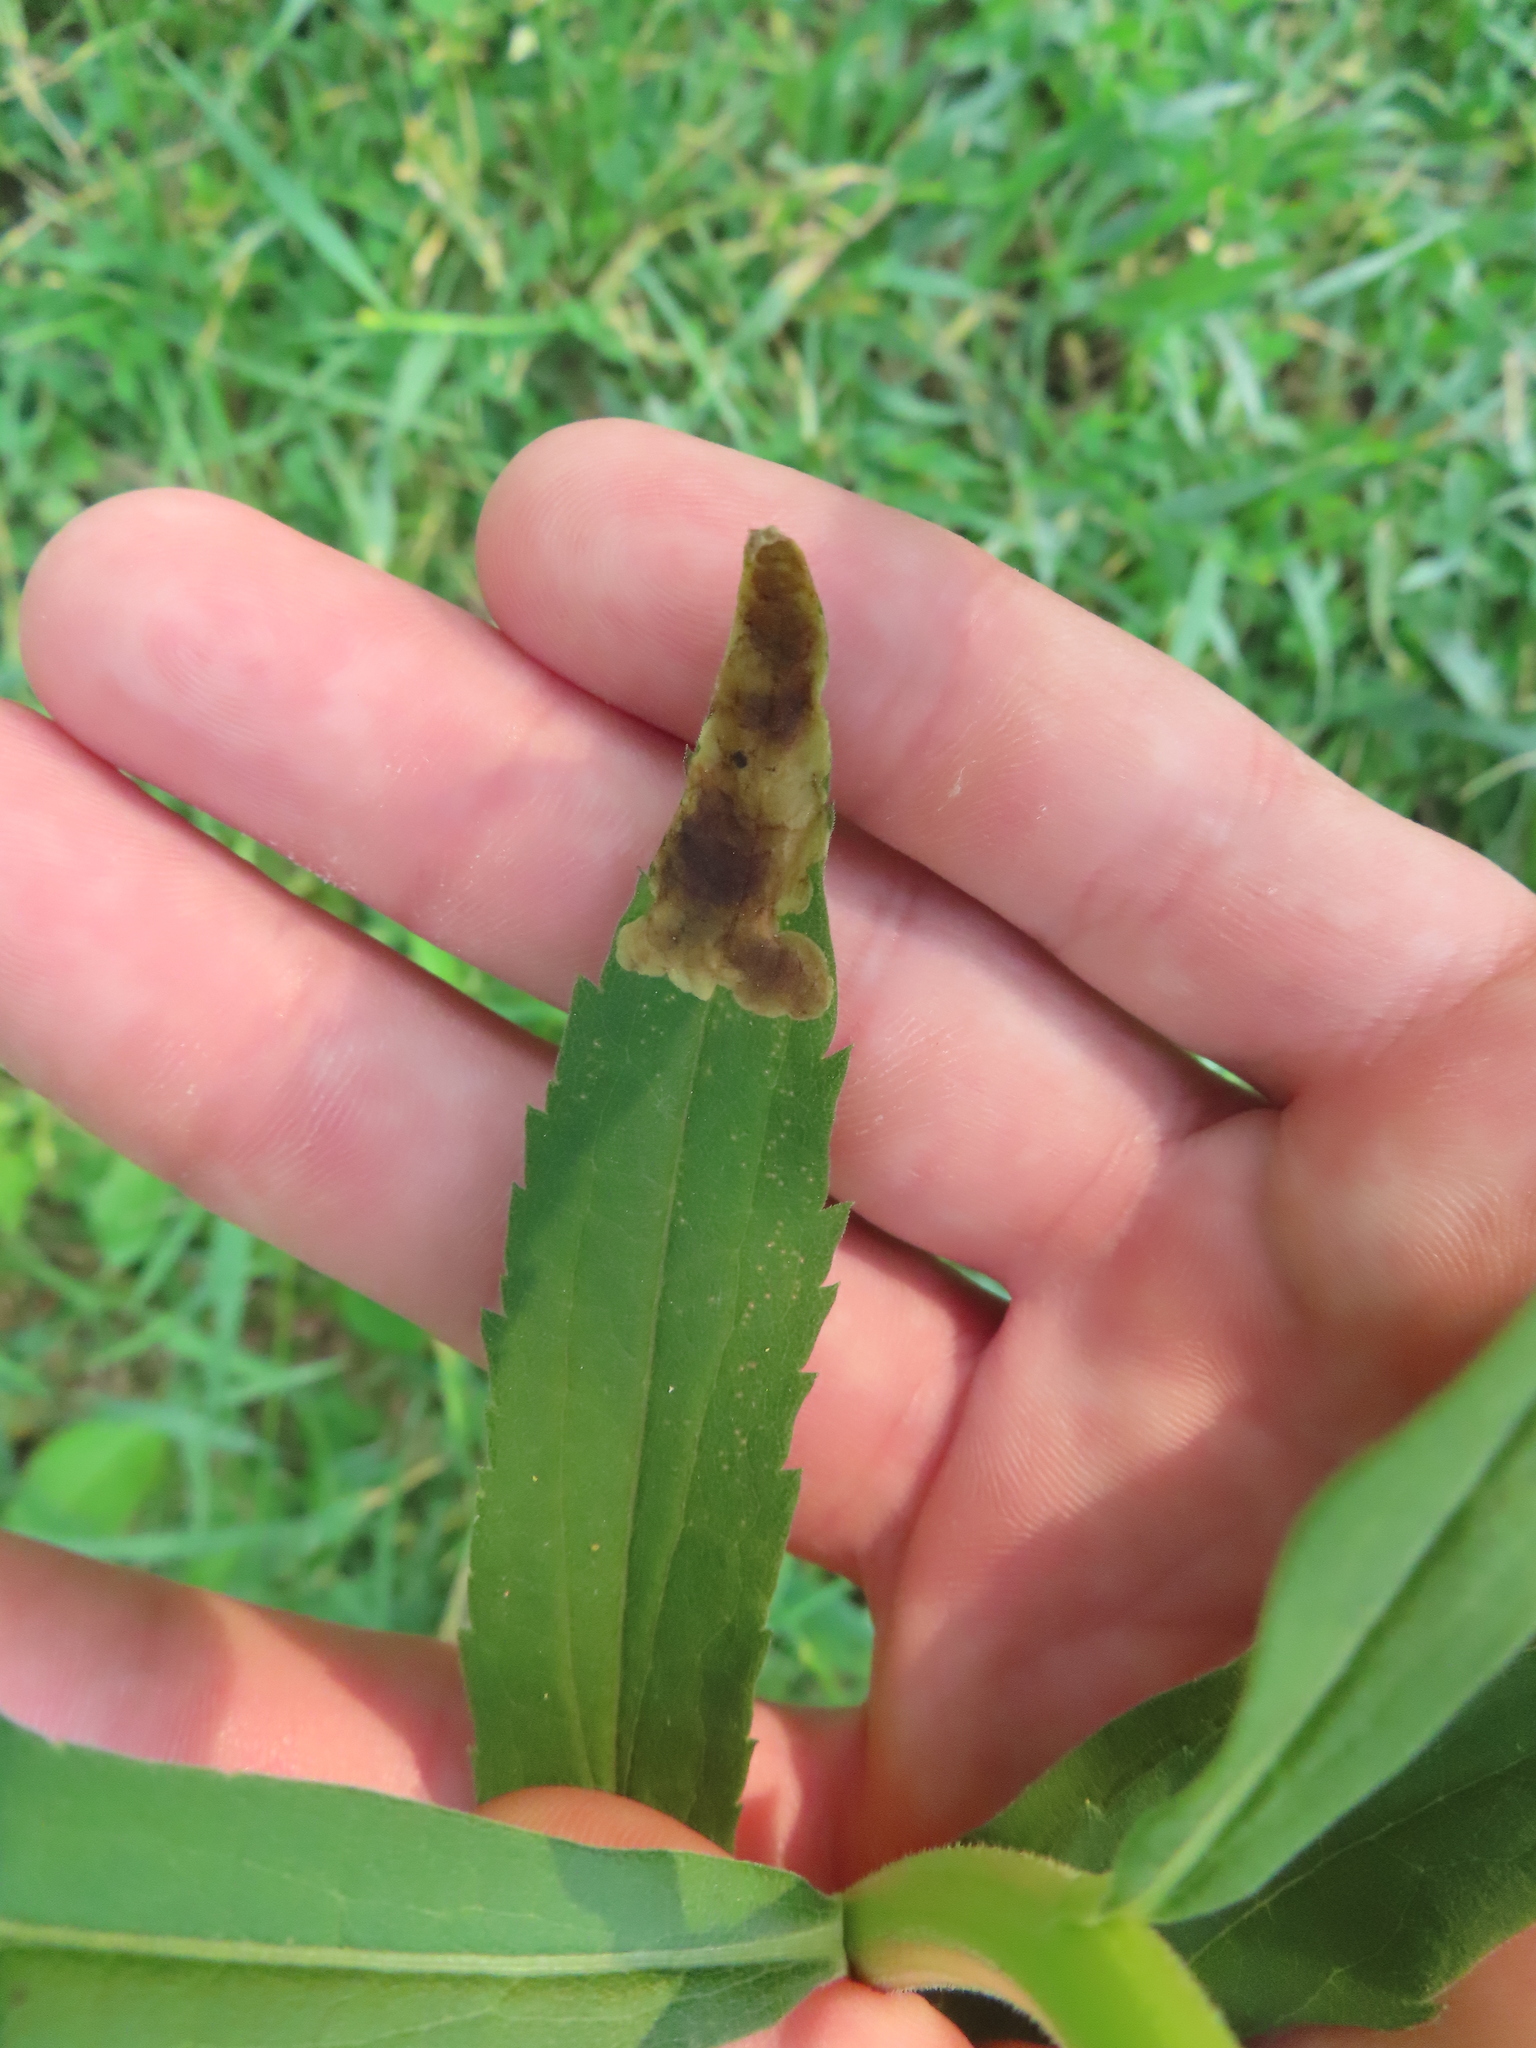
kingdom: Animalia
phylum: Arthropoda
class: Insecta
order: Diptera
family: Agromyzidae
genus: Nemorimyza
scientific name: Nemorimyza posticata
